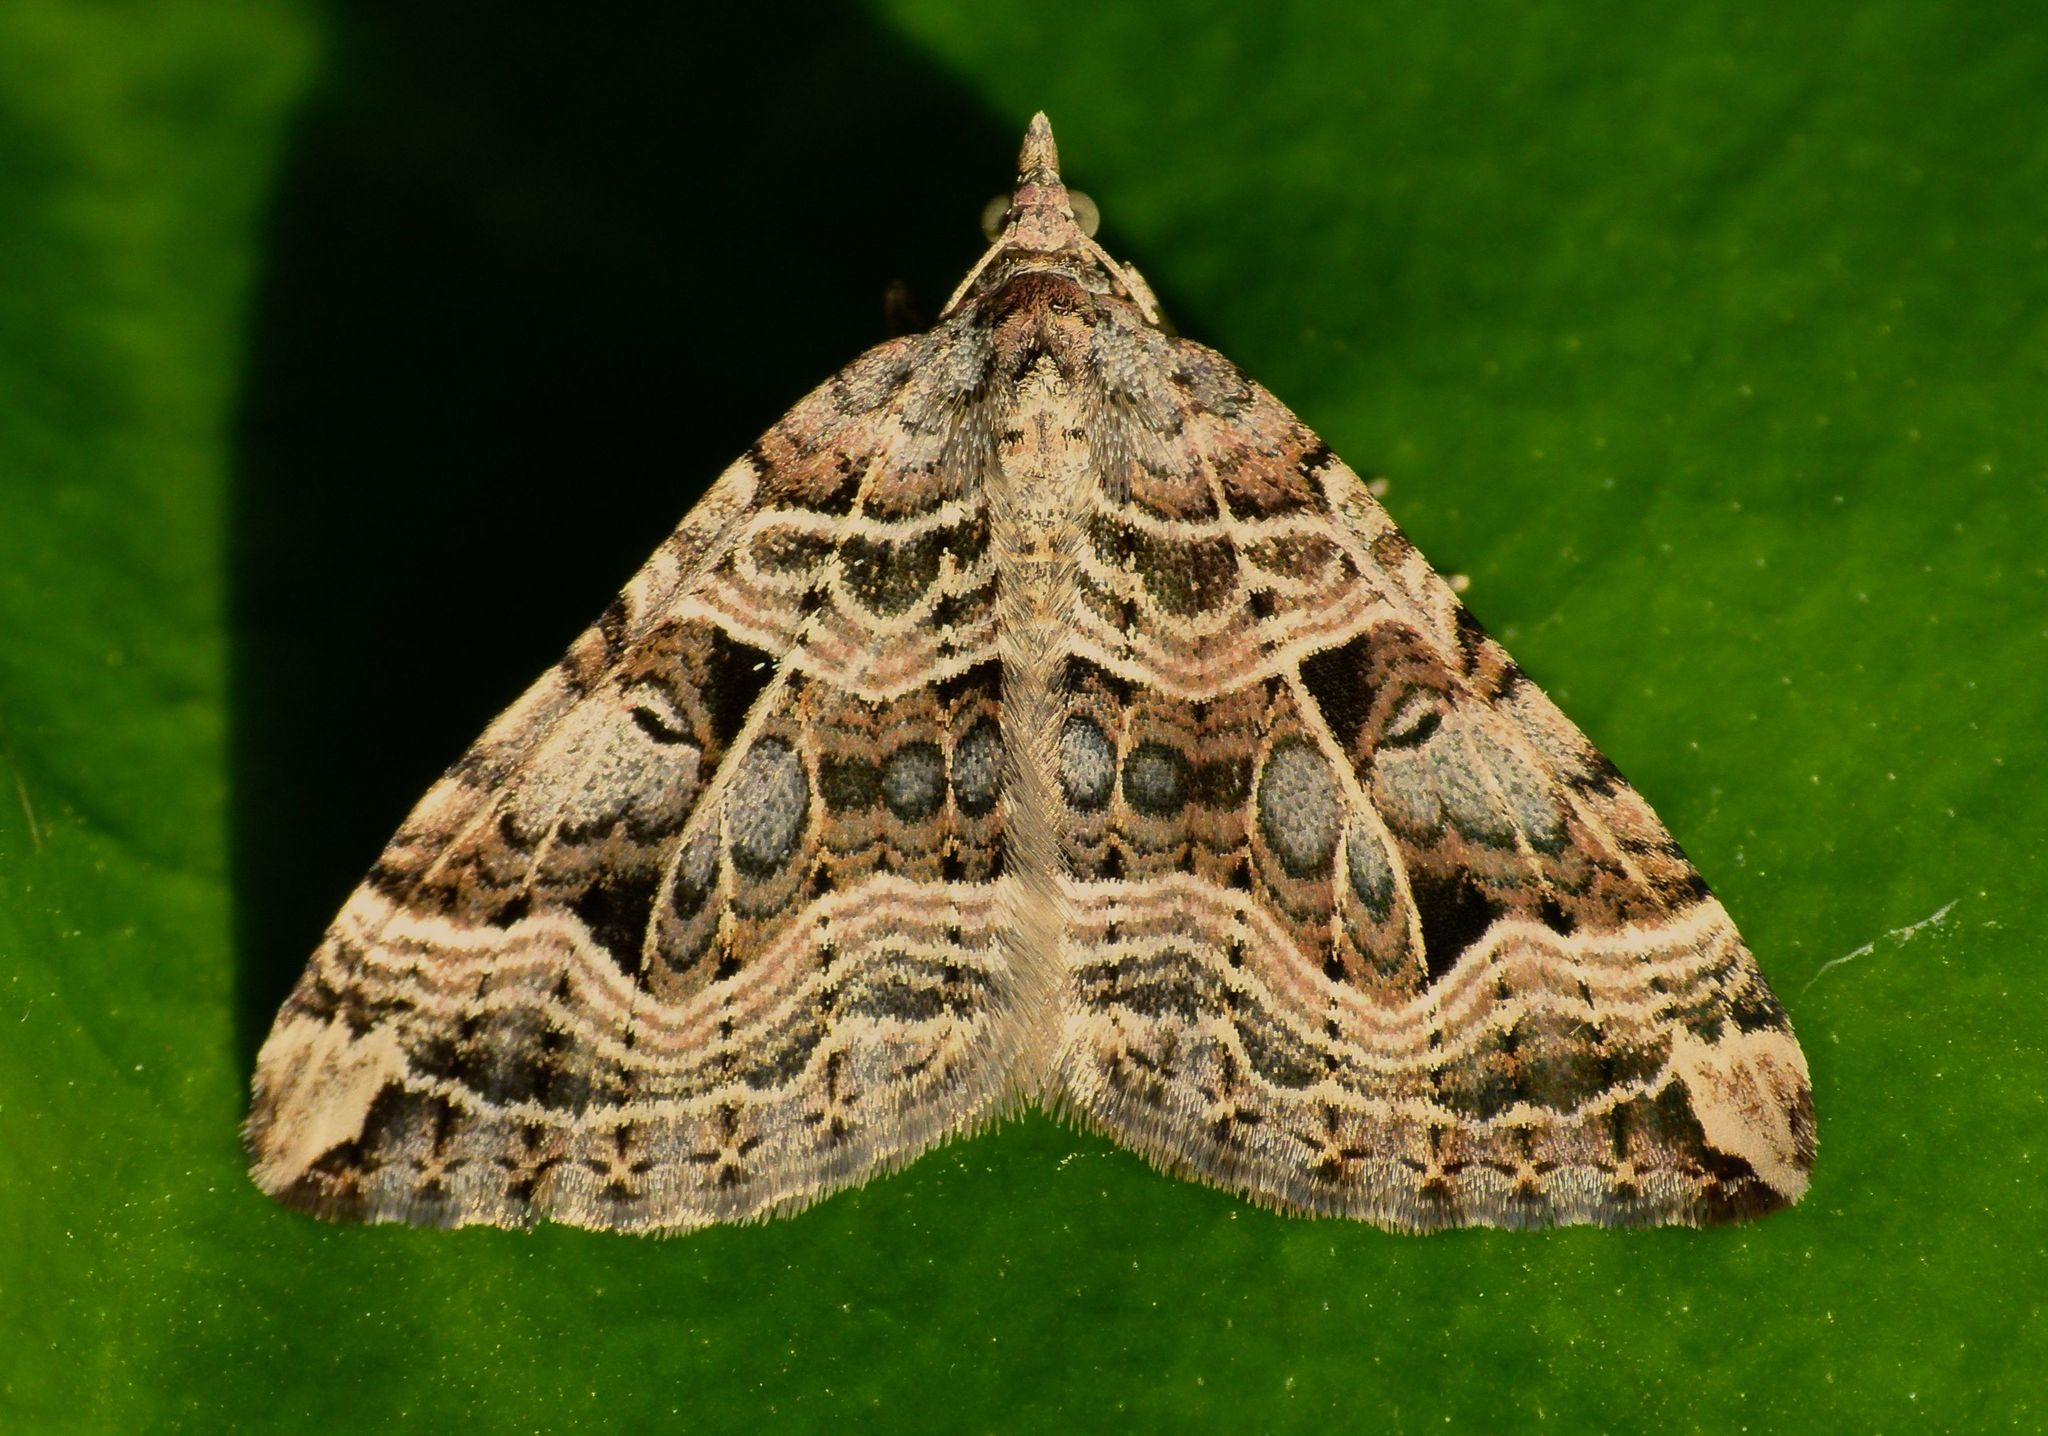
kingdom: Animalia
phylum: Arthropoda
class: Insecta
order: Lepidoptera
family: Geometridae
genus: Xanthorhoe
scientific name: Xanthorhoe semifissata
